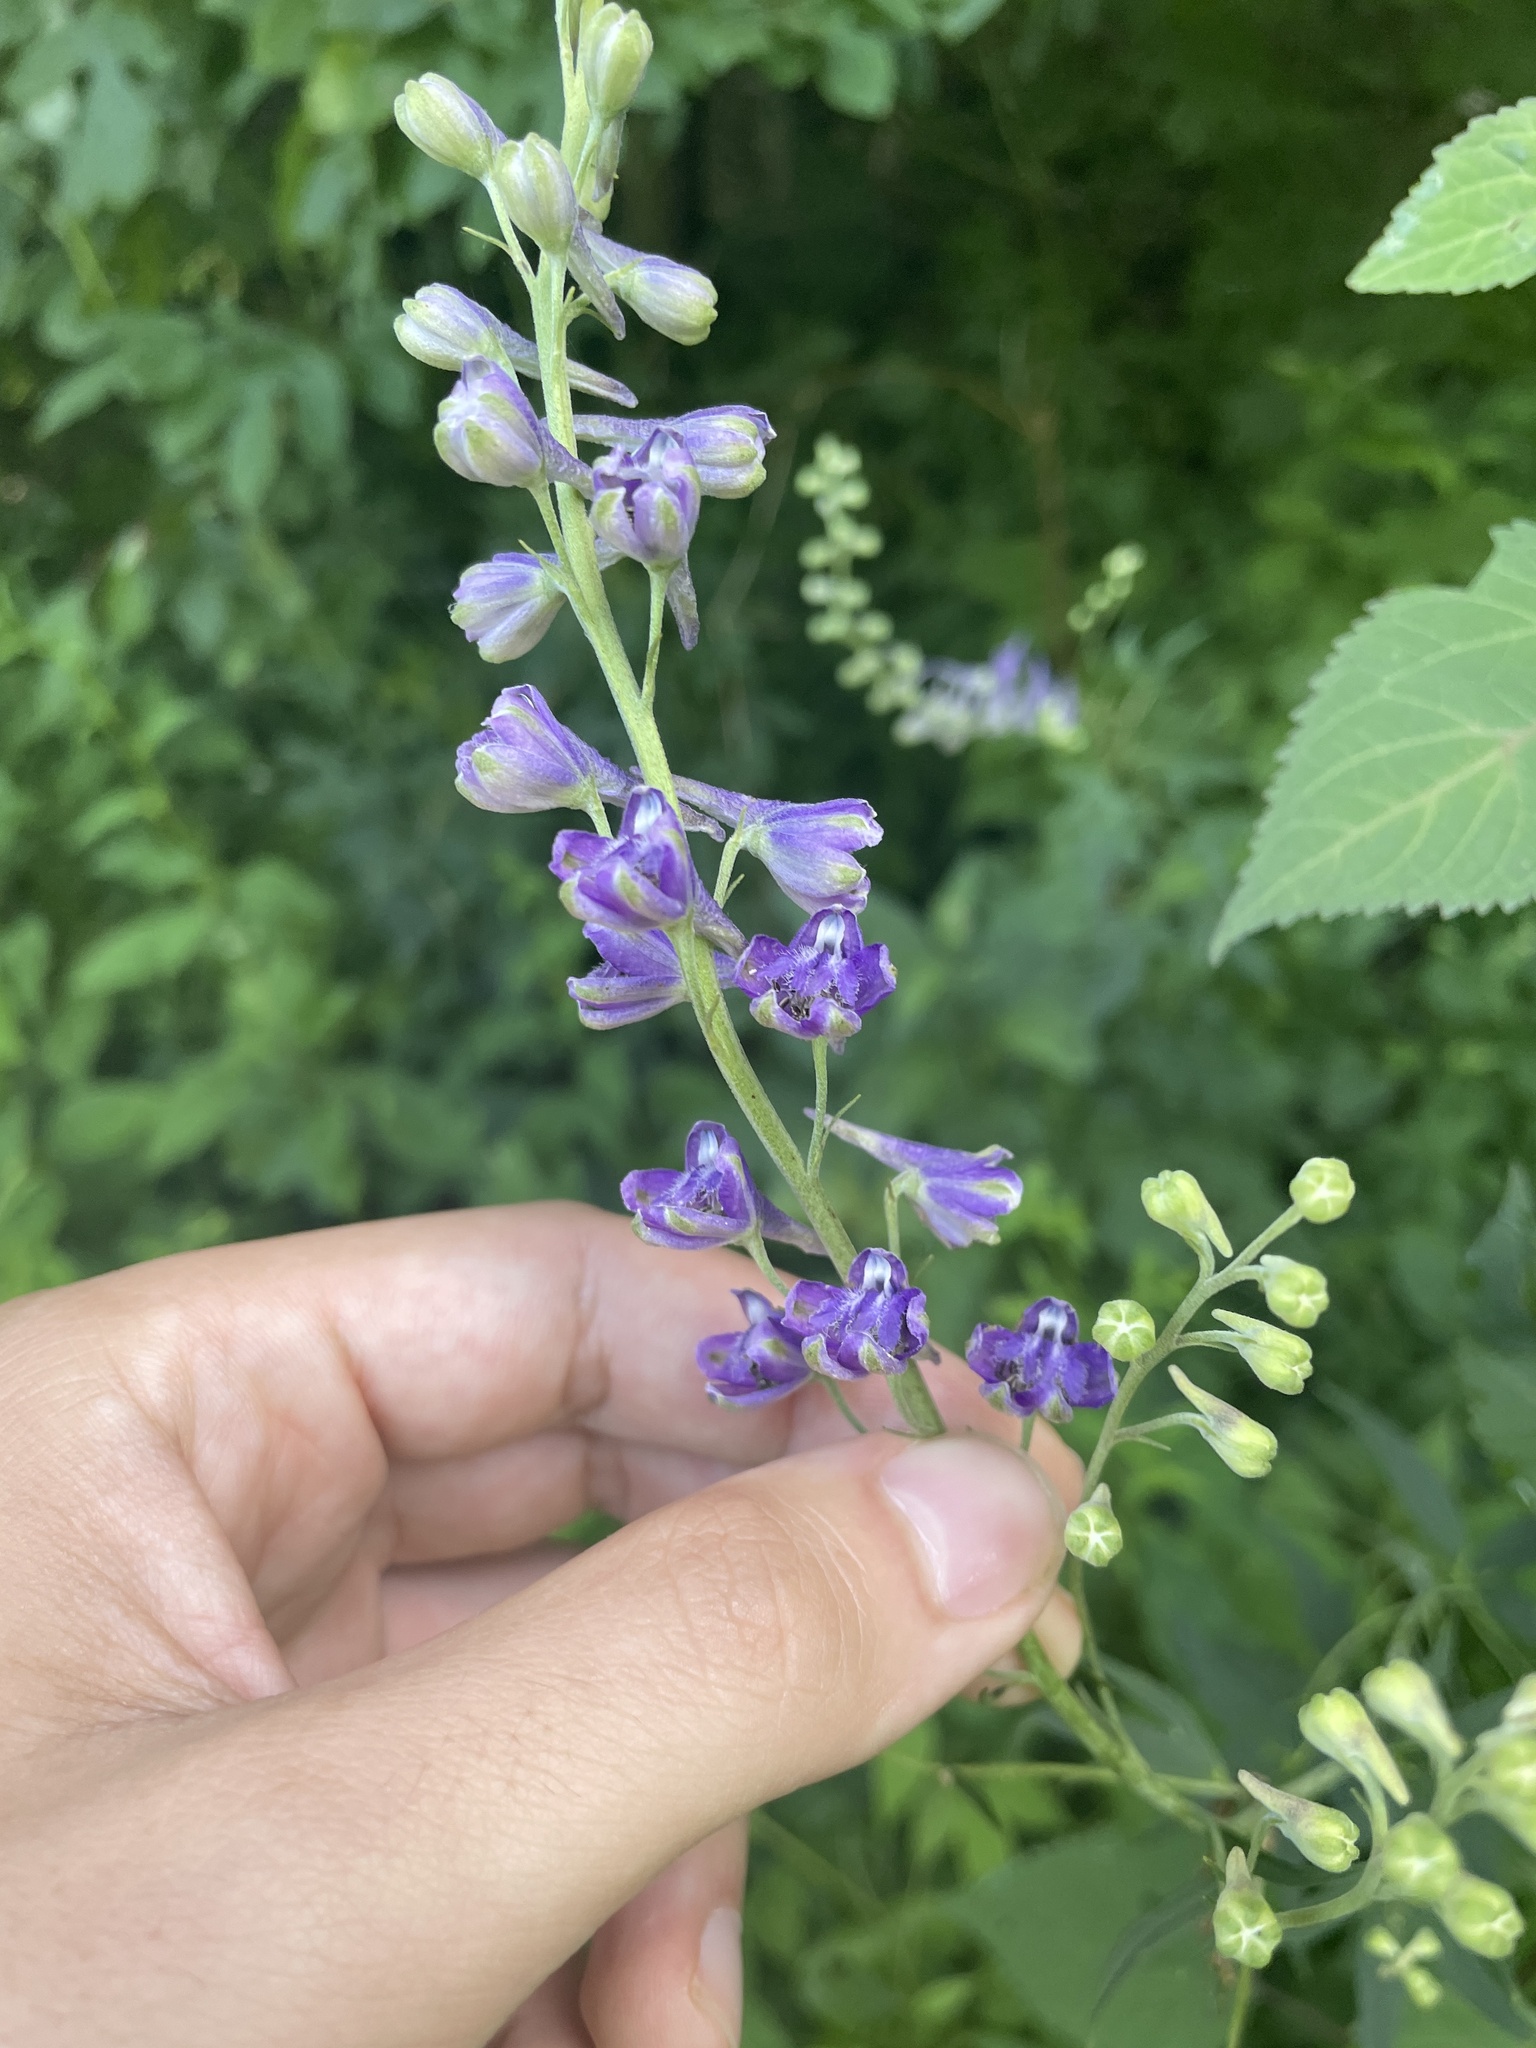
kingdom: Plantae
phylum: Tracheophyta
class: Magnoliopsida
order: Ranunculales
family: Ranunculaceae
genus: Delphinium
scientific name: Delphinium exaltatum
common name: Tall larkspur
